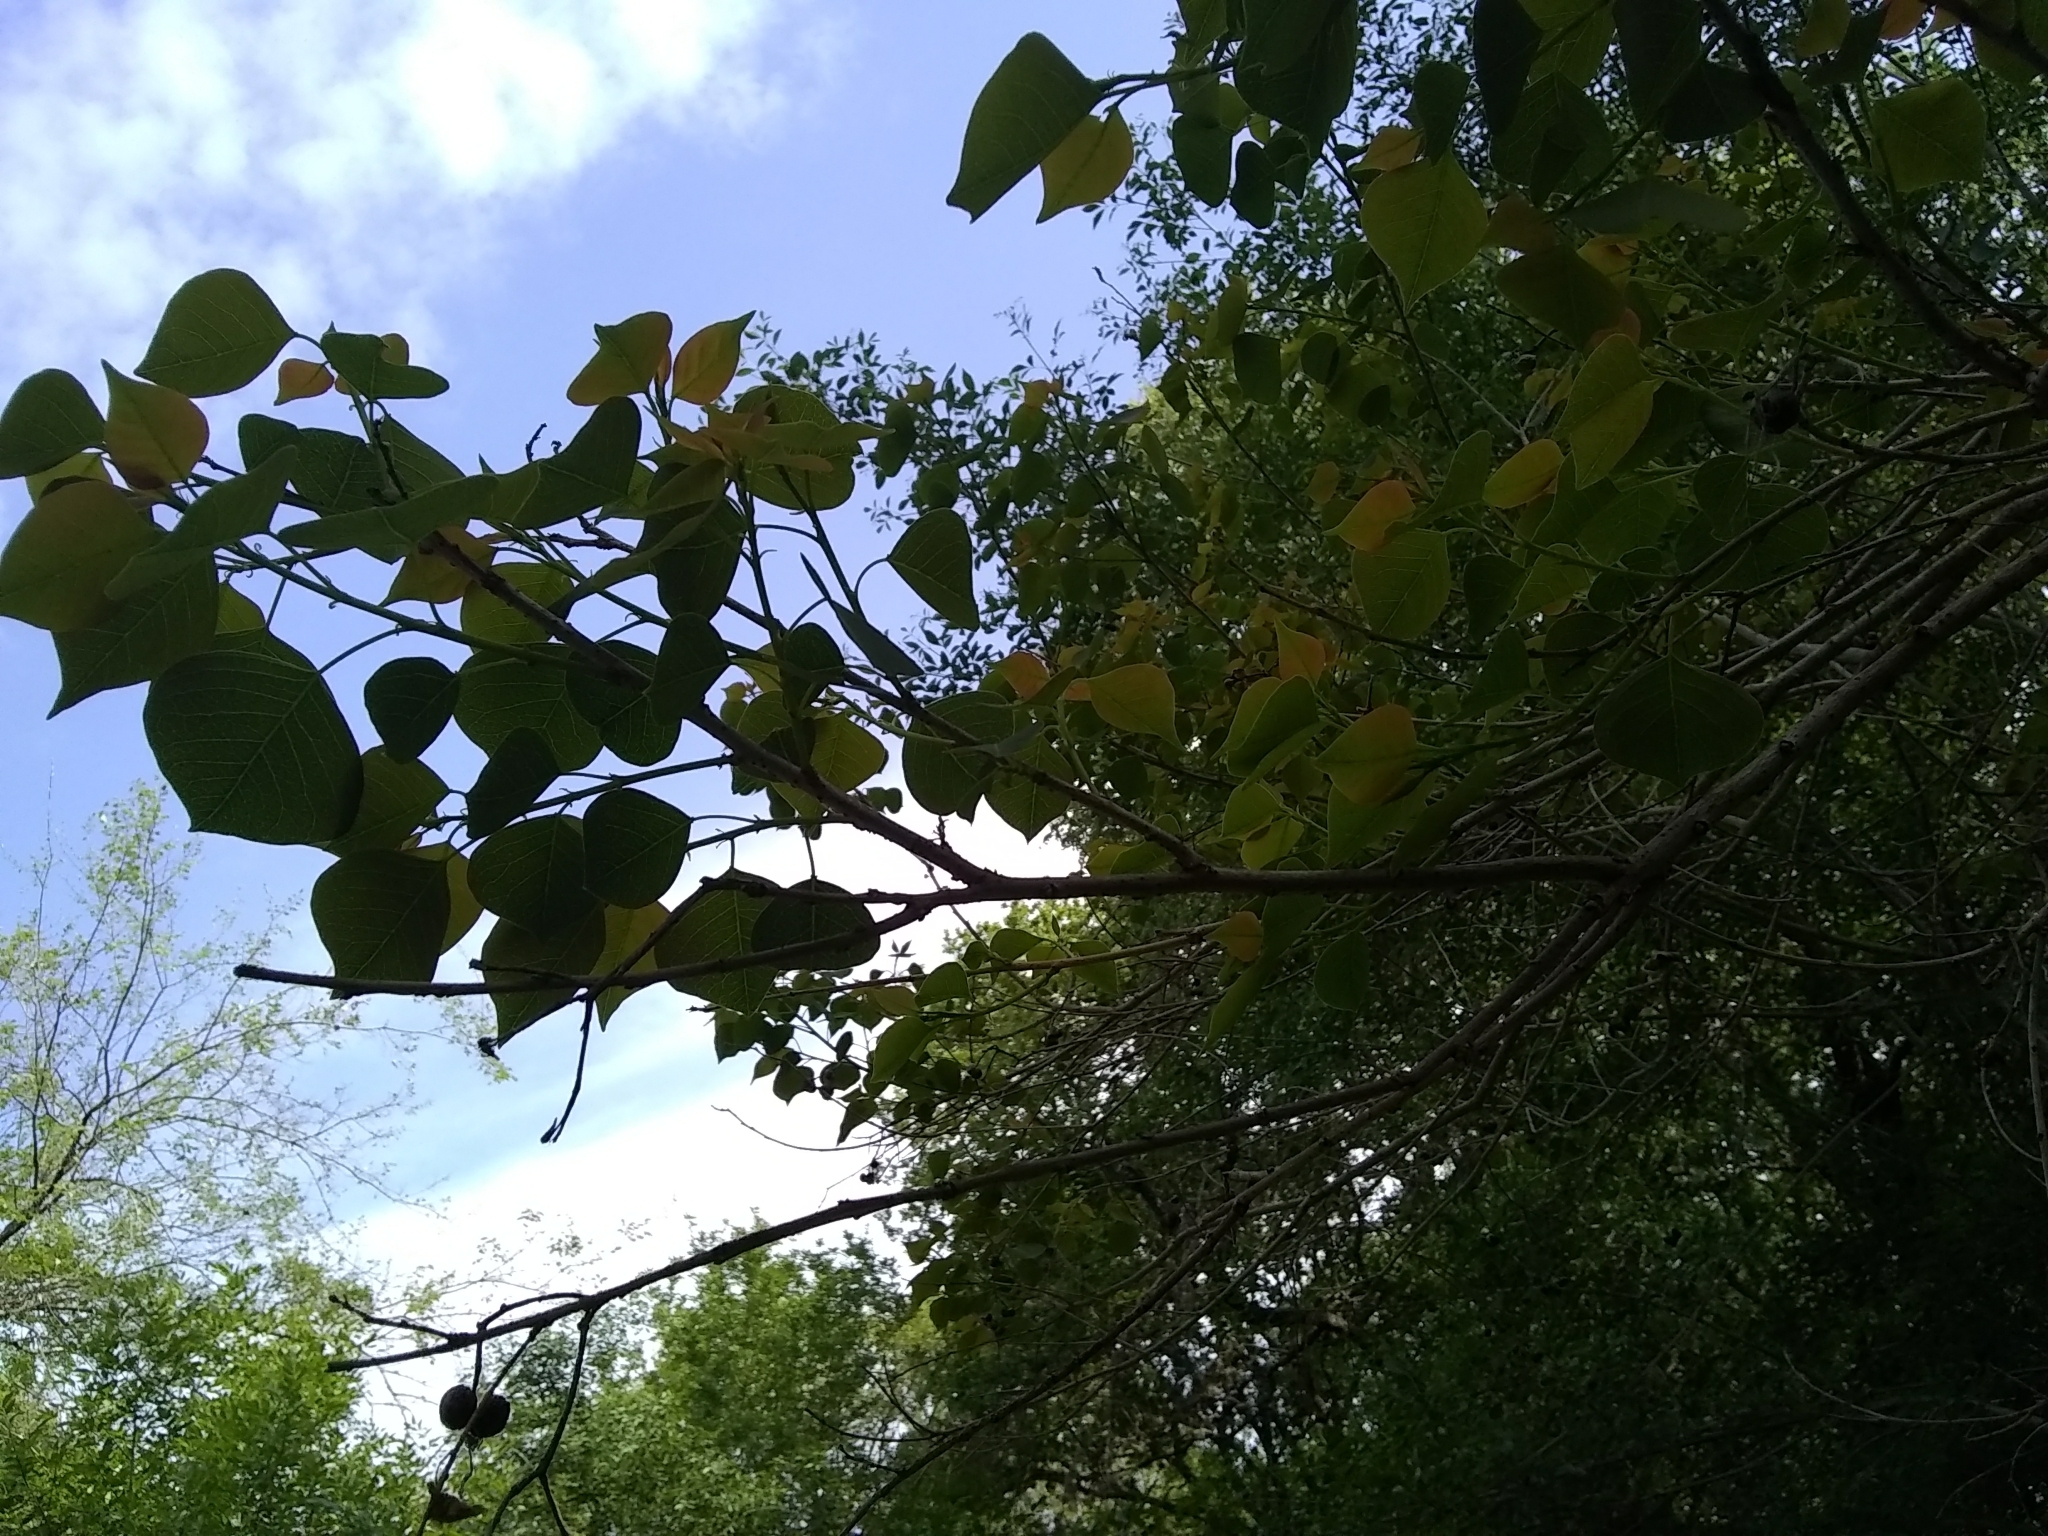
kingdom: Plantae
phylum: Tracheophyta
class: Magnoliopsida
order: Malpighiales
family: Euphorbiaceae
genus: Triadica
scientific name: Triadica sebifera
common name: Chinese tallow
